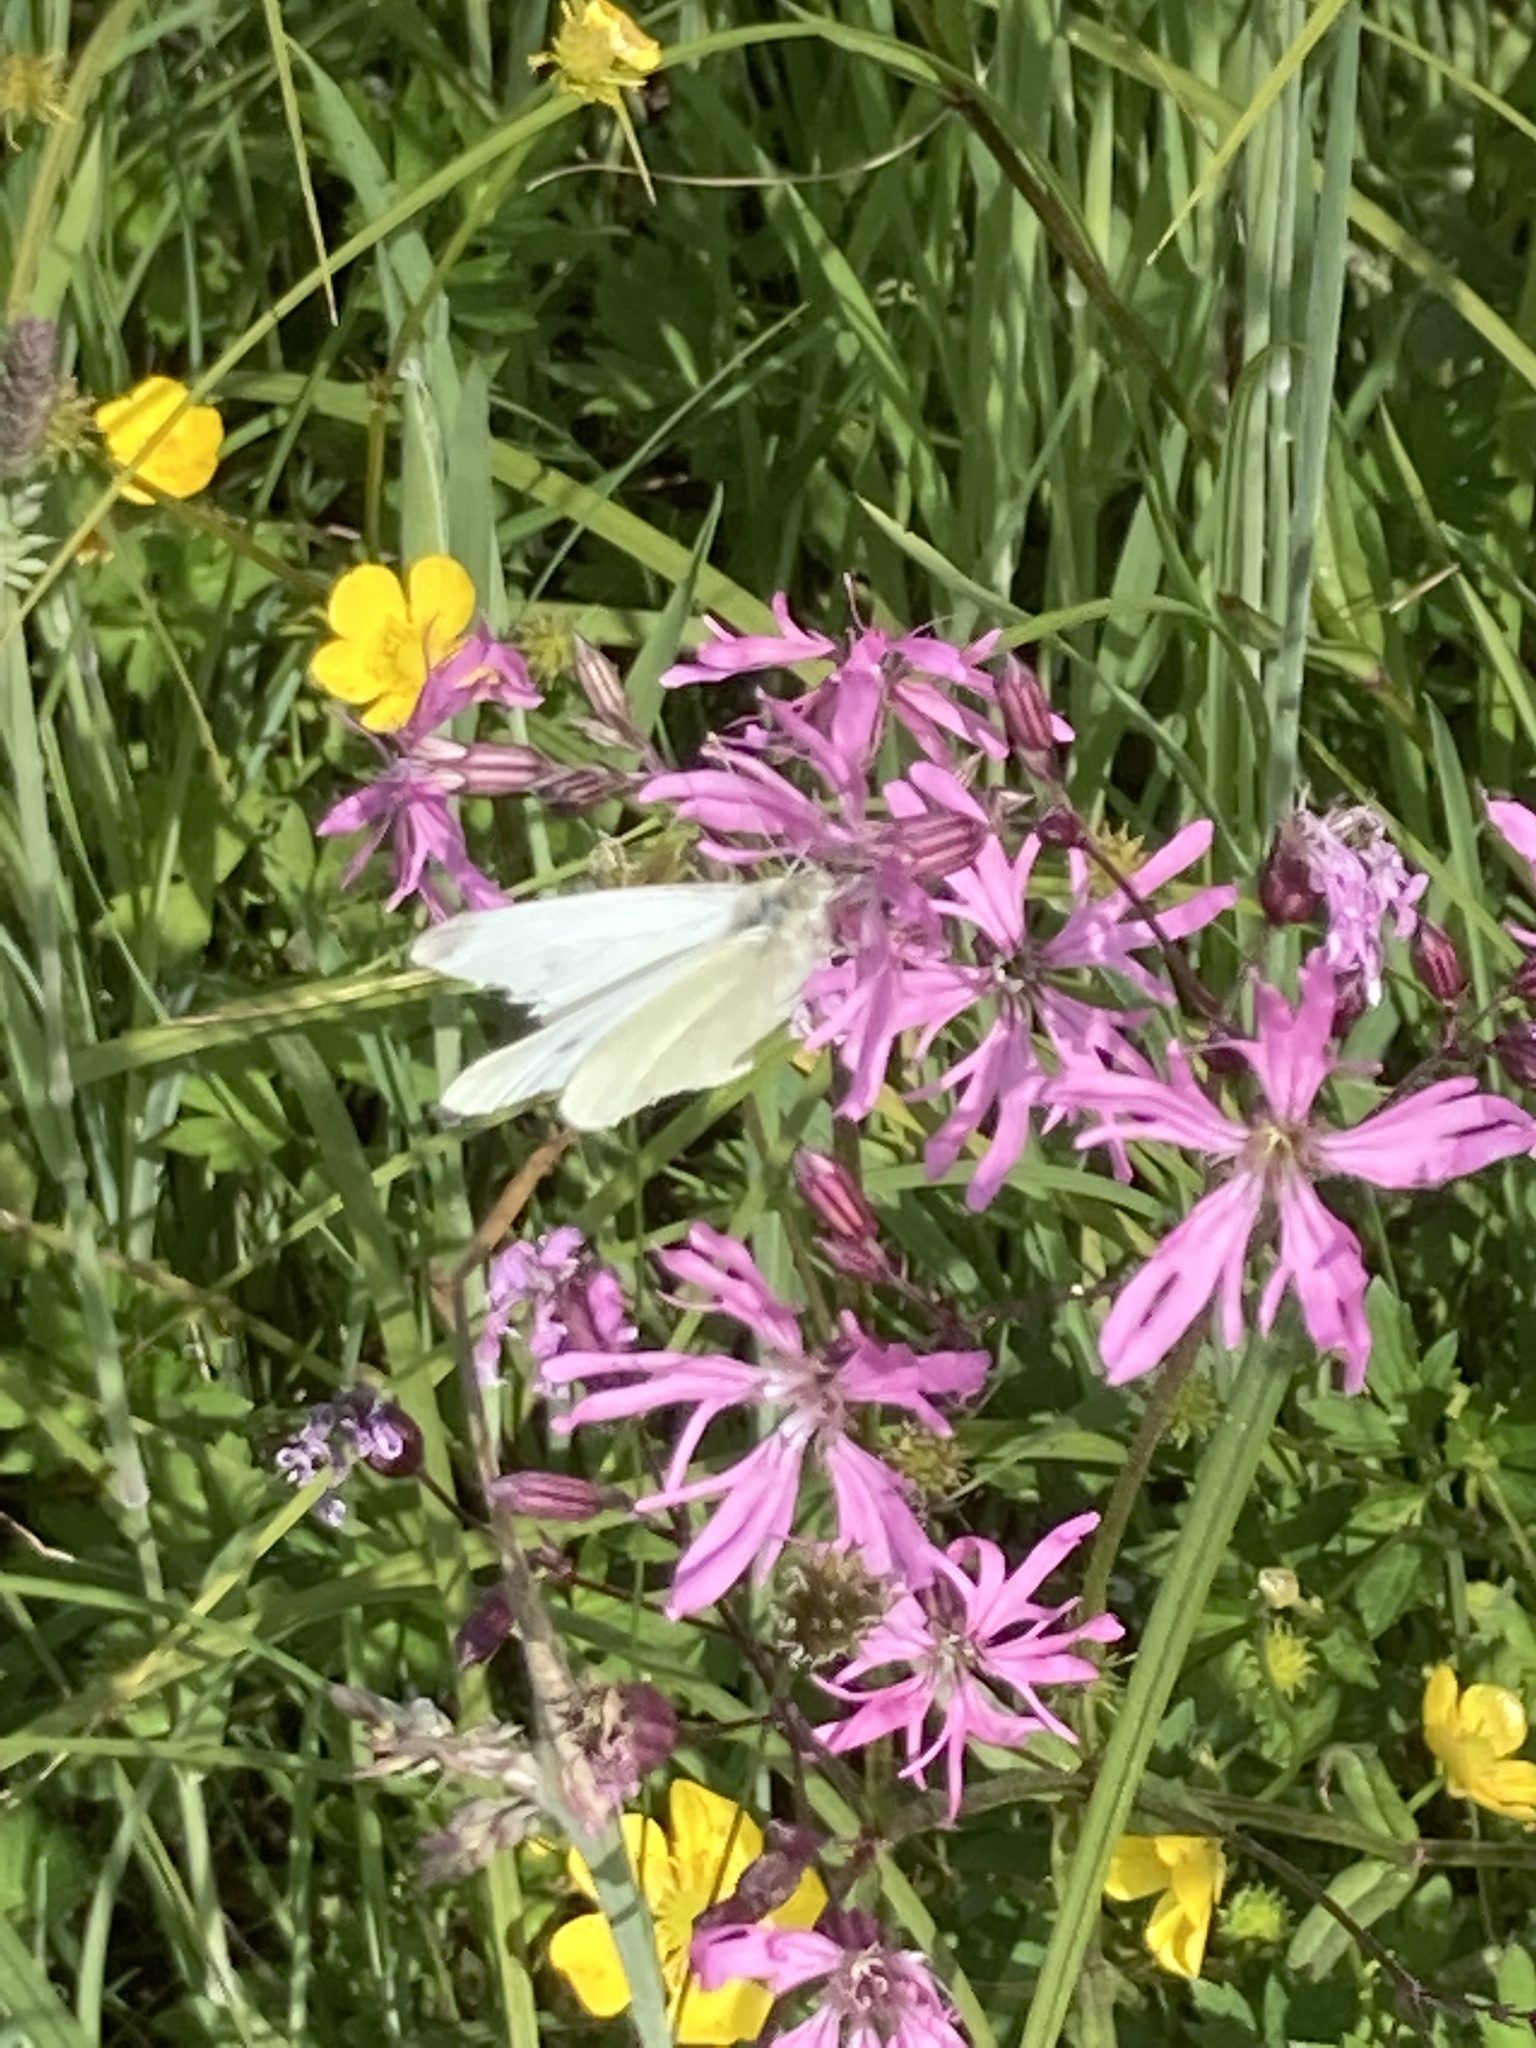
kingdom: Plantae
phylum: Tracheophyta
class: Magnoliopsida
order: Caryophyllales
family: Caryophyllaceae
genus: Silene
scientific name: Silene flos-cuculi
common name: Ragged-robin
